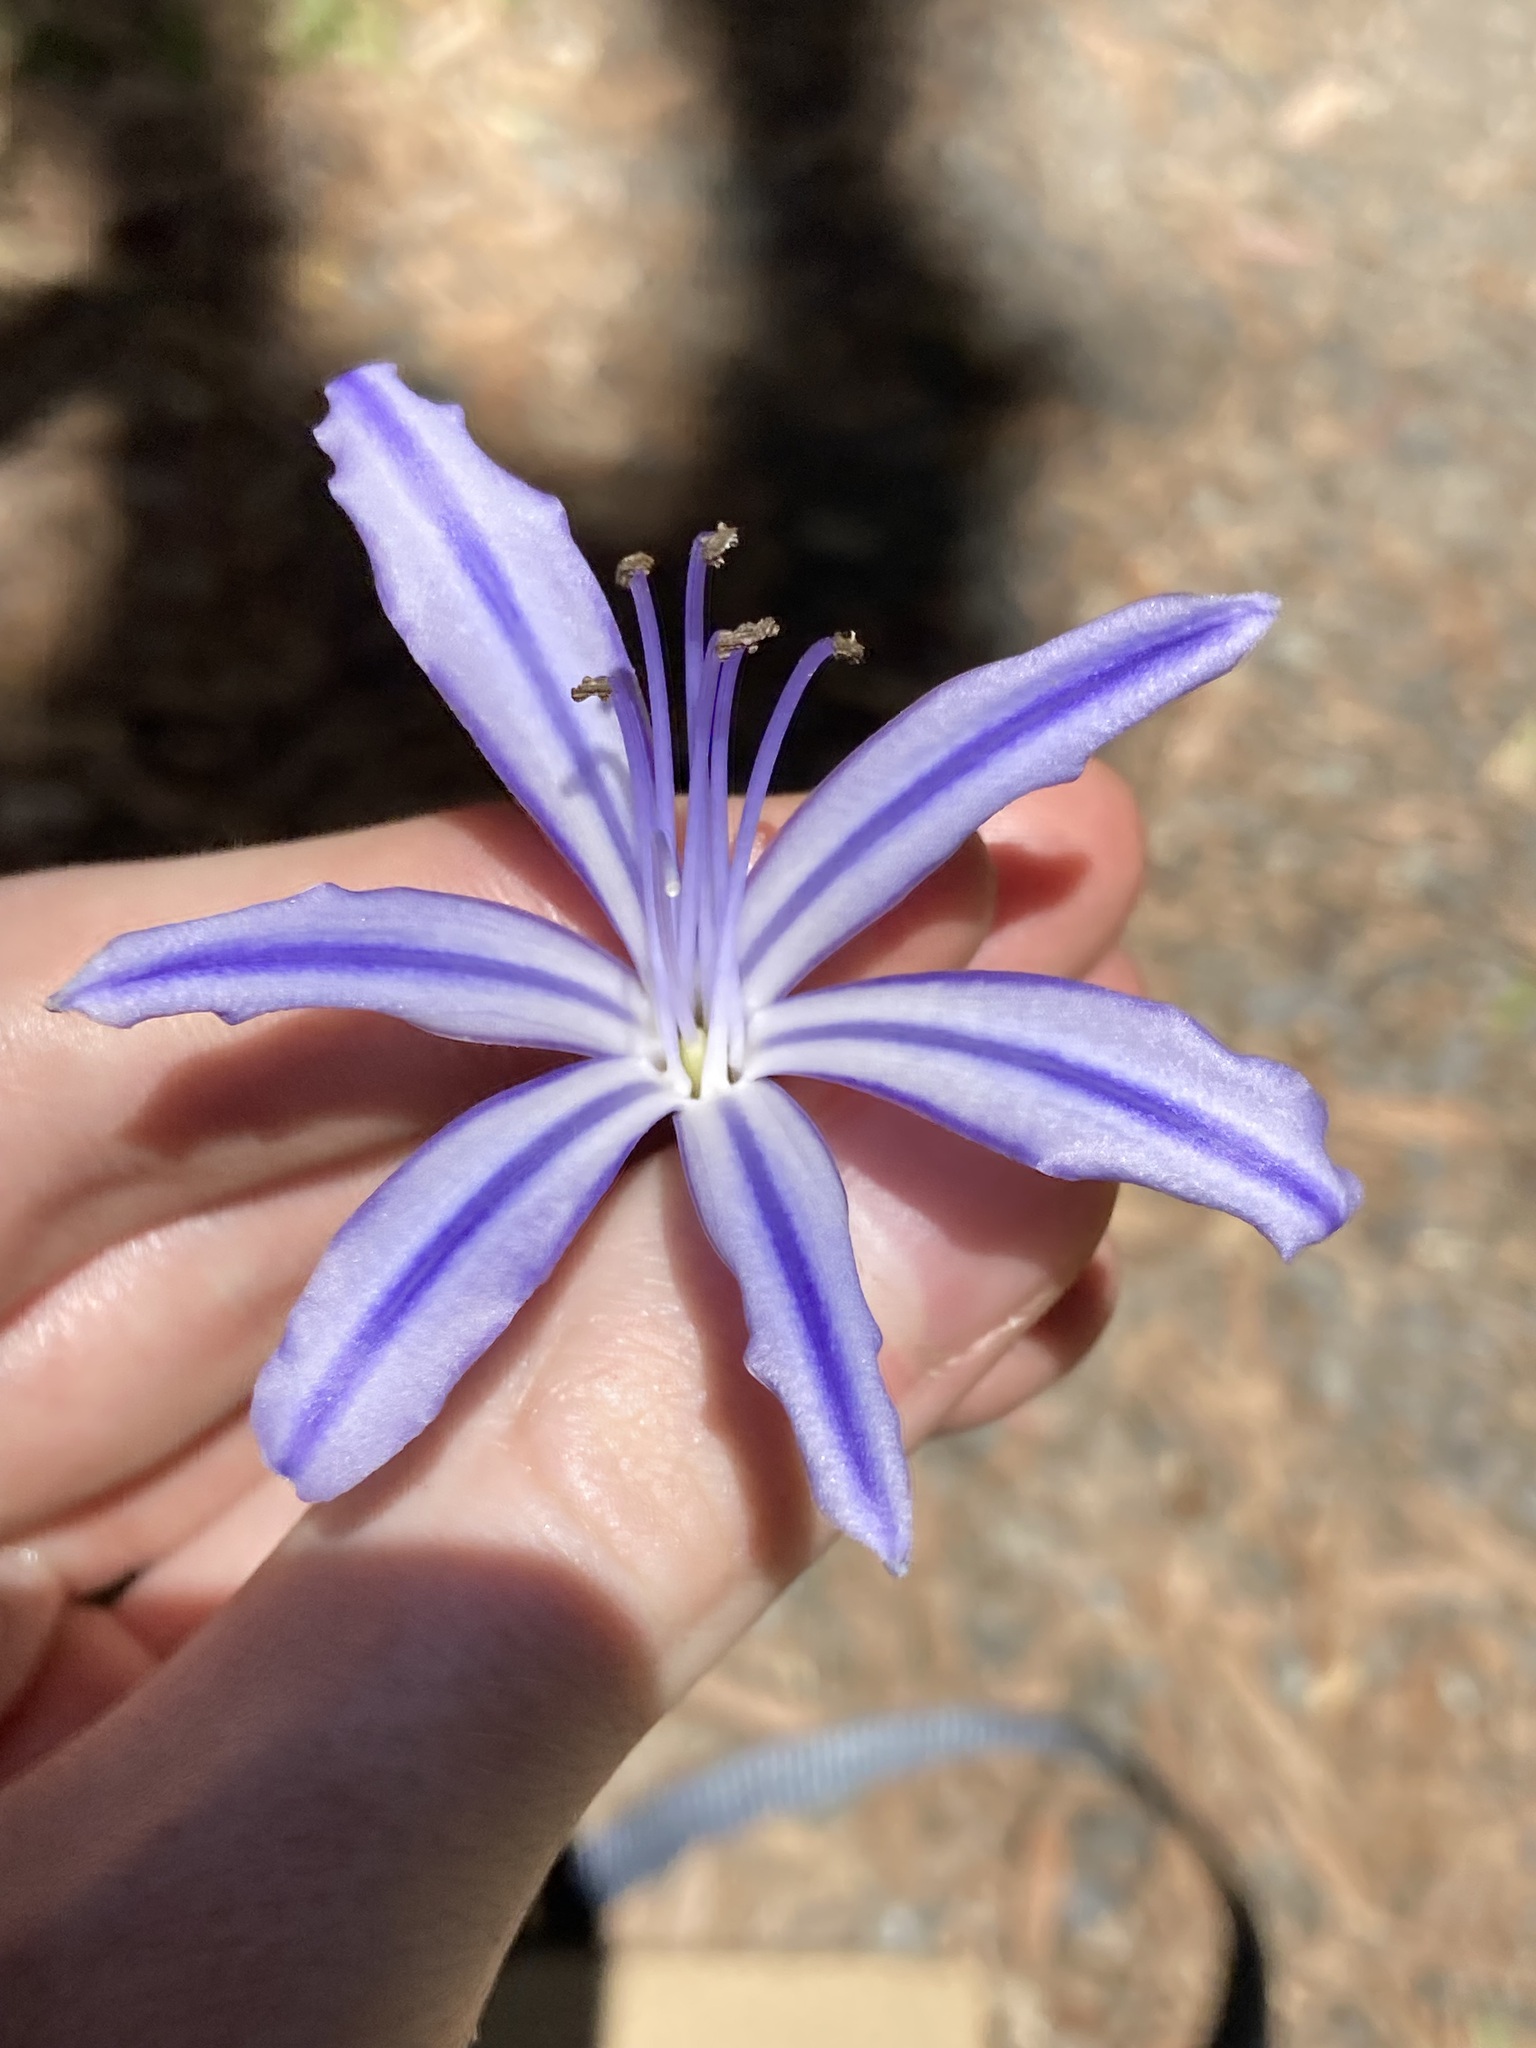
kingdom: Plantae
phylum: Tracheophyta
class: Liliopsida
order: Asparagales
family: Amaryllidaceae
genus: Agapanthus
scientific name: Agapanthus praecox
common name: African-lily
